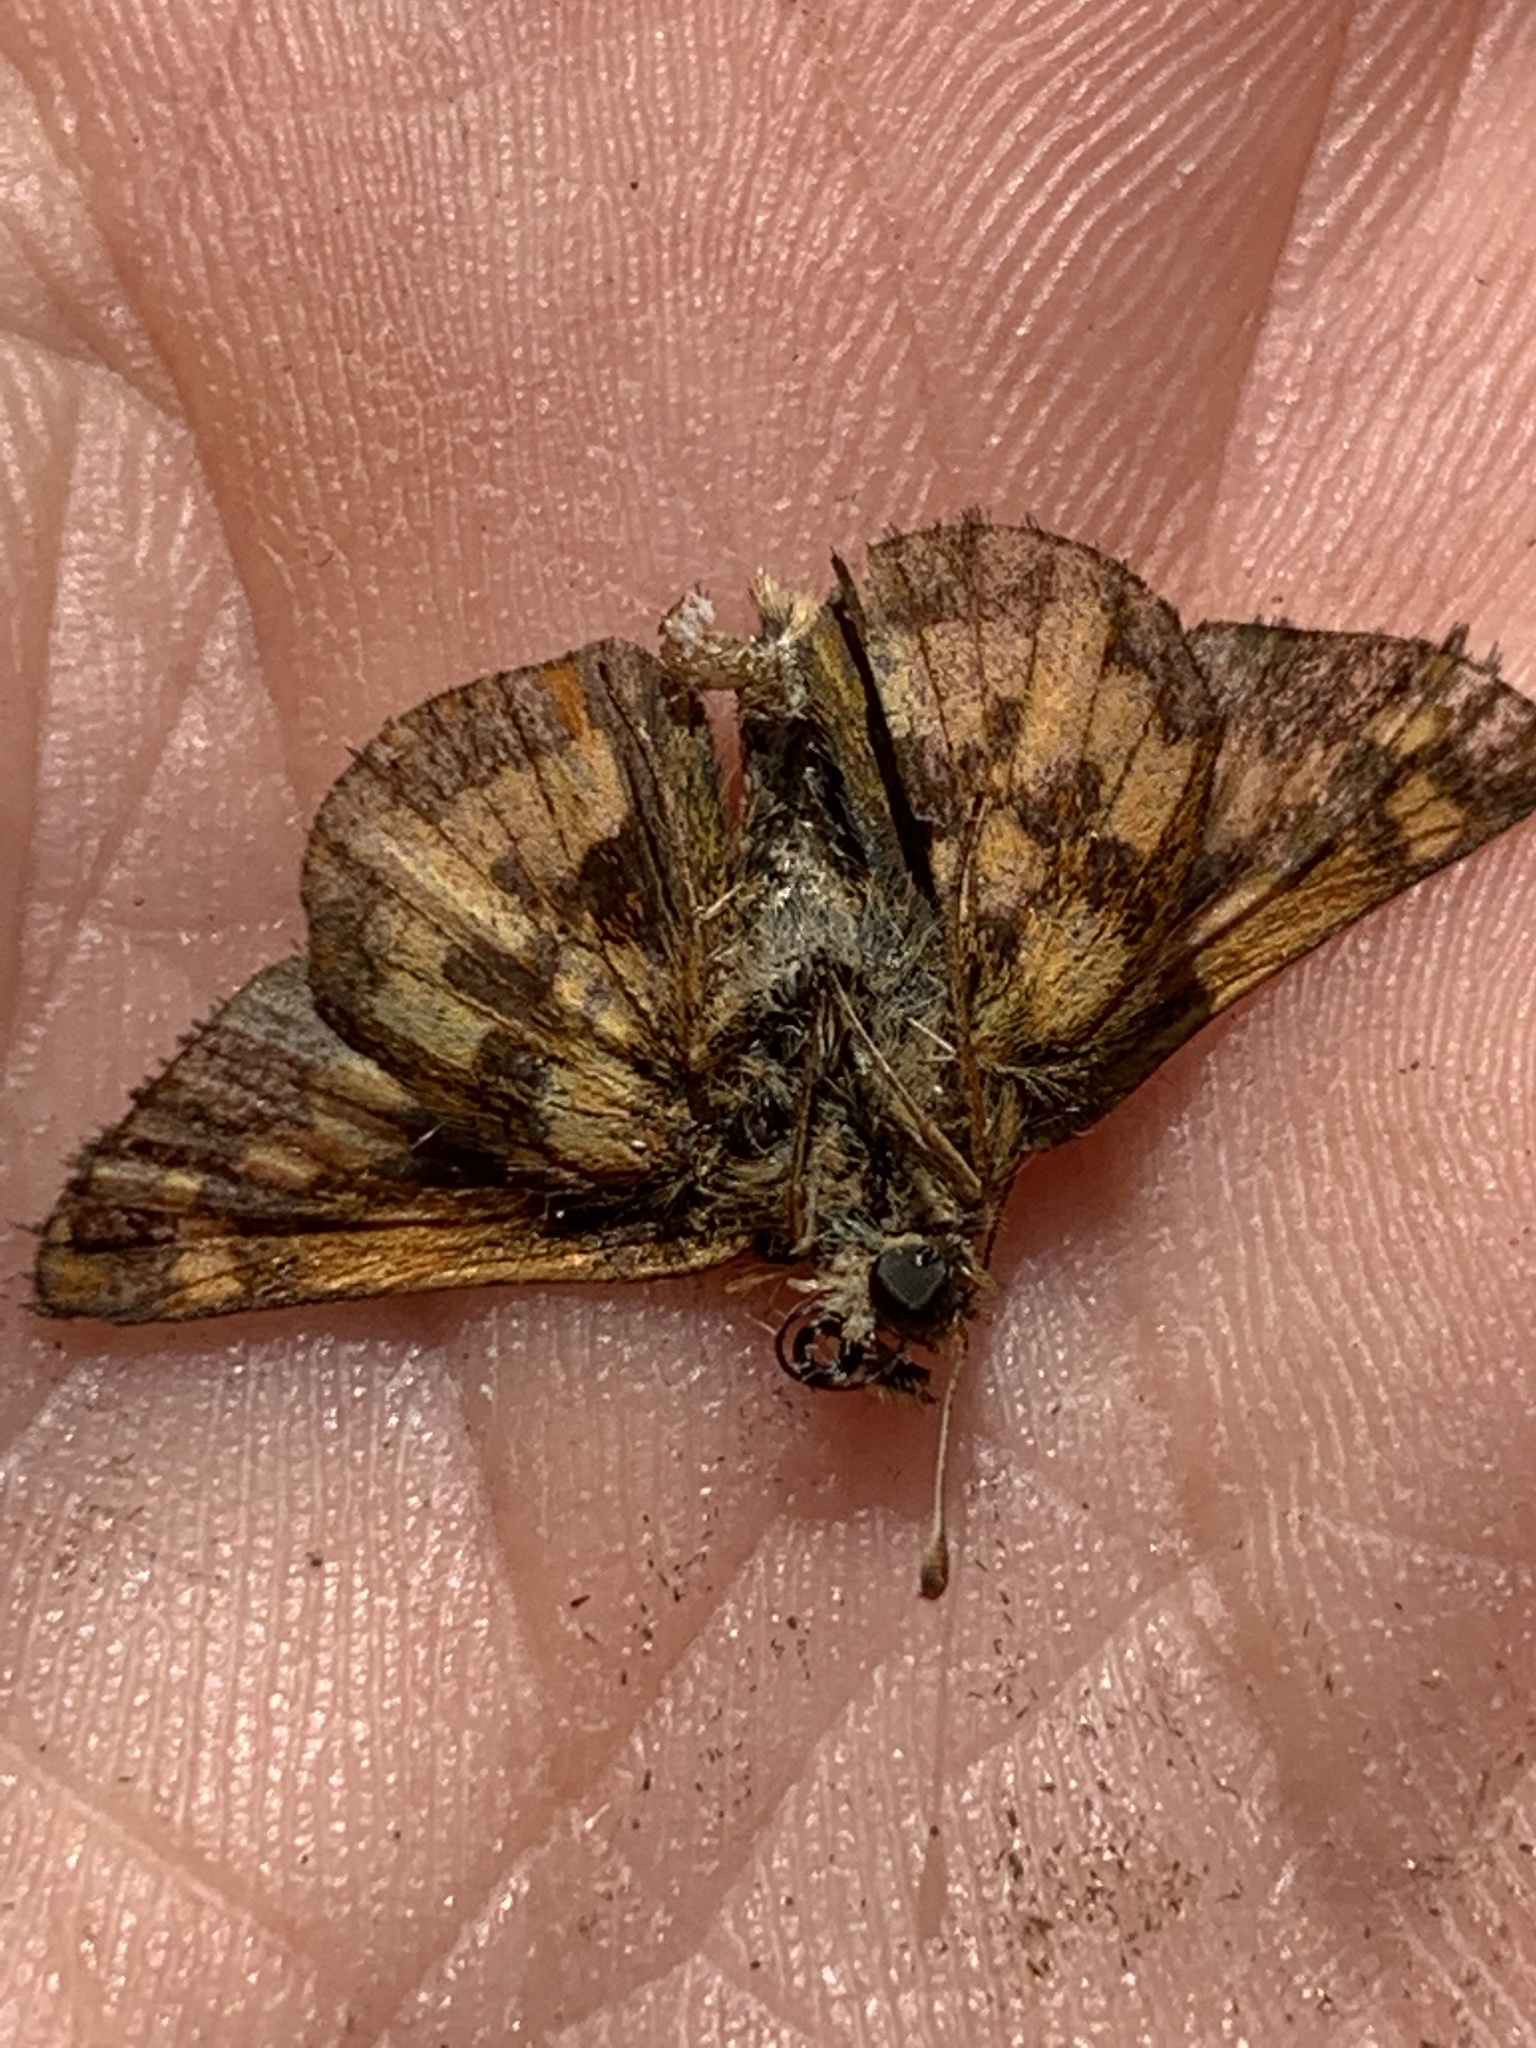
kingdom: Animalia
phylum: Arthropoda
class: Insecta
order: Lepidoptera
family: Hesperiidae
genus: Polites
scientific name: Polites coras
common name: Peck's skipper
